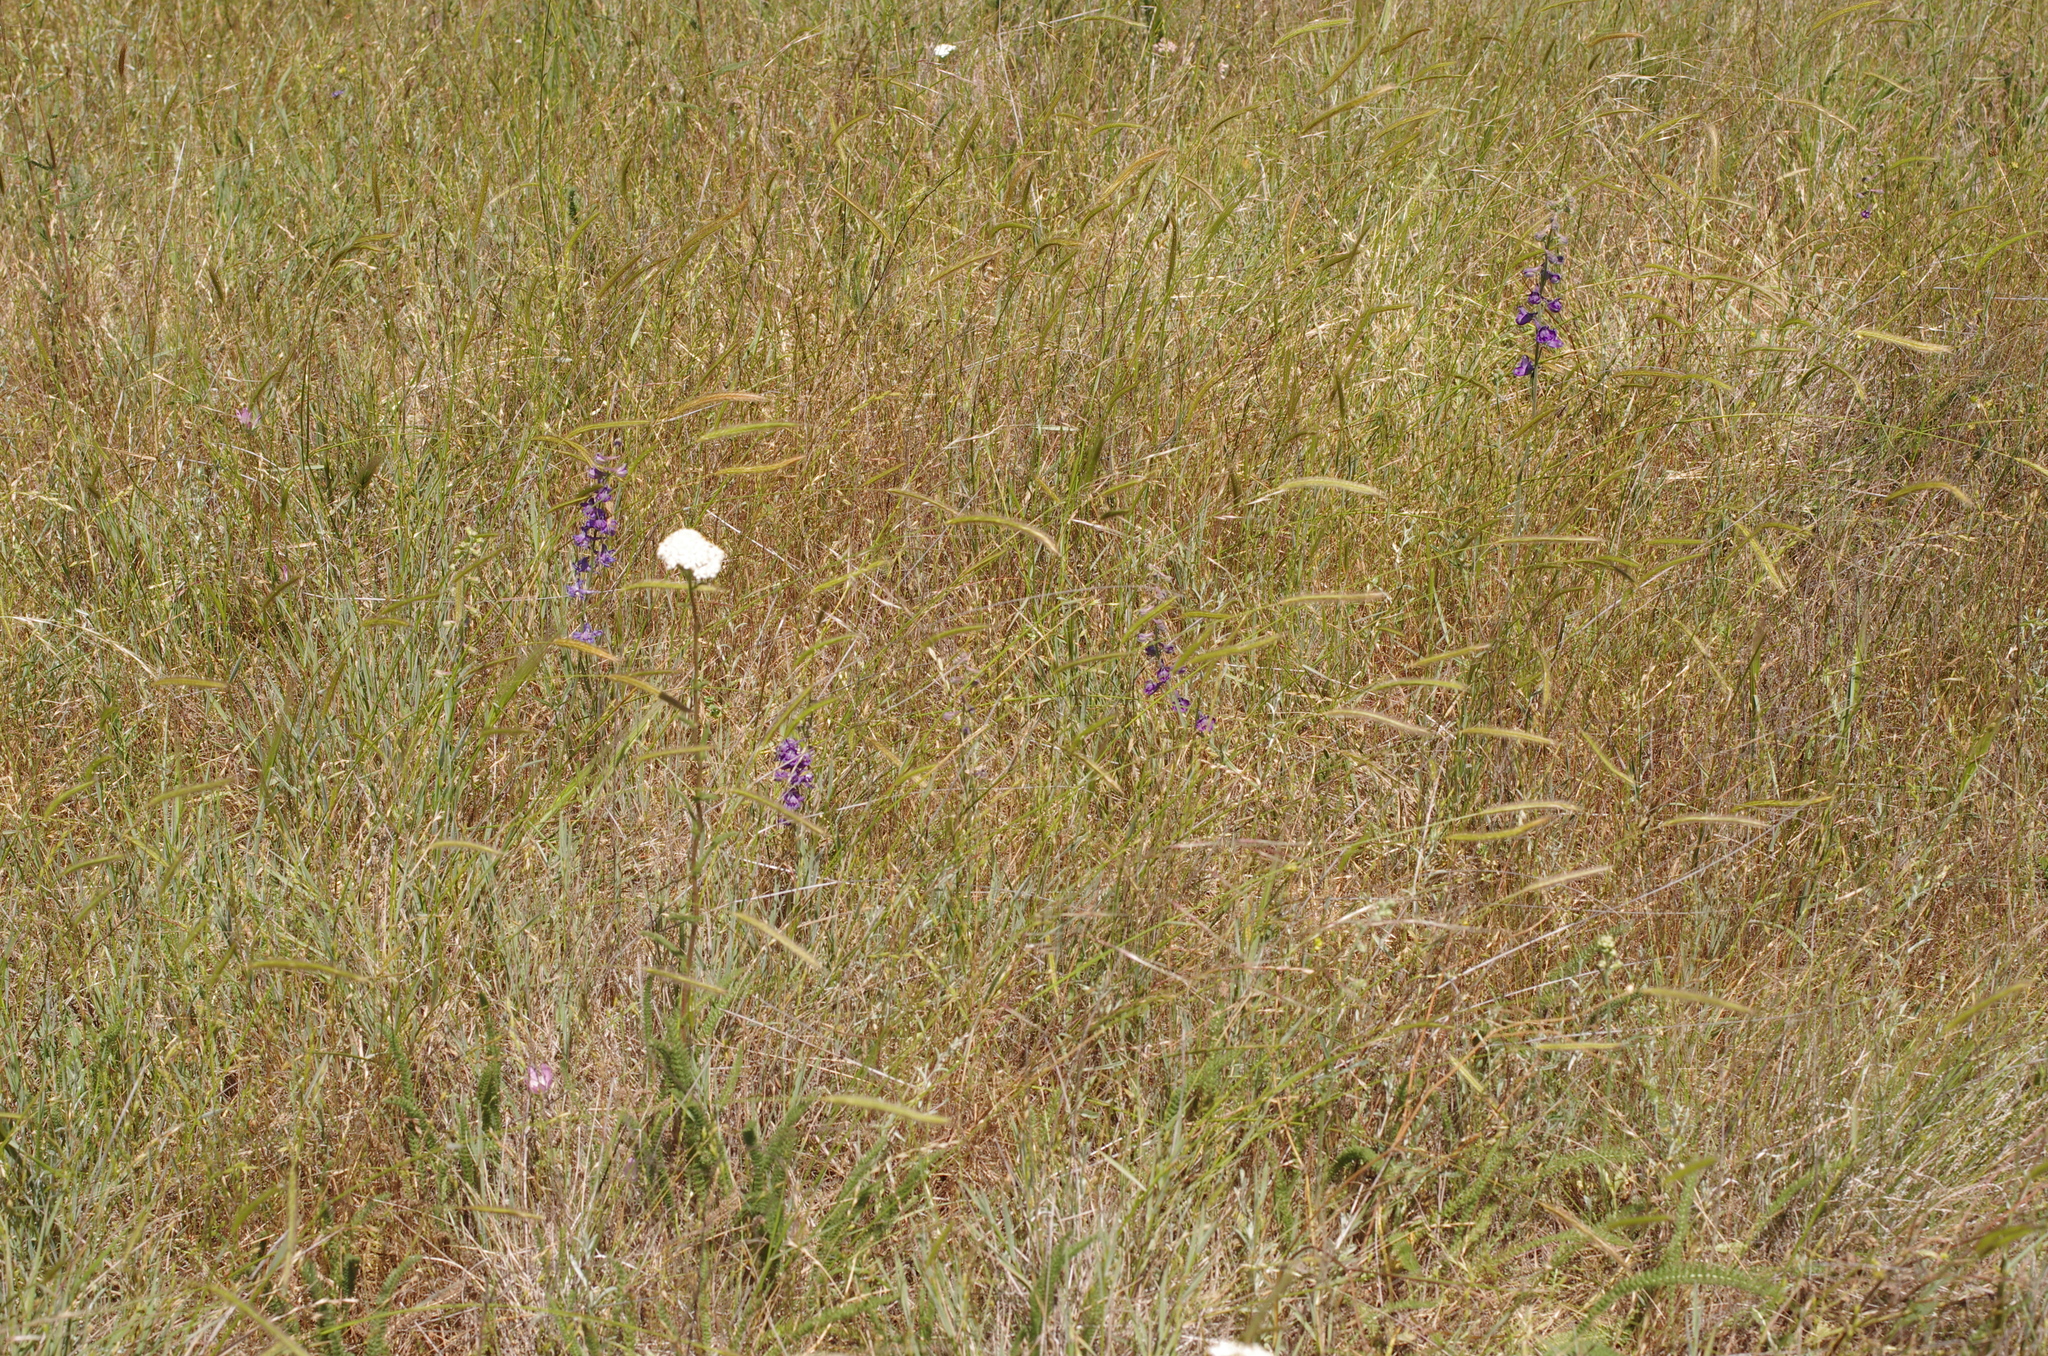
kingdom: Plantae
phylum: Tracheophyta
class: Magnoliopsida
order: Ranunculales
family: Ranunculaceae
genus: Delphinium
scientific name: Delphinium hesperium
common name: Western larkspur
